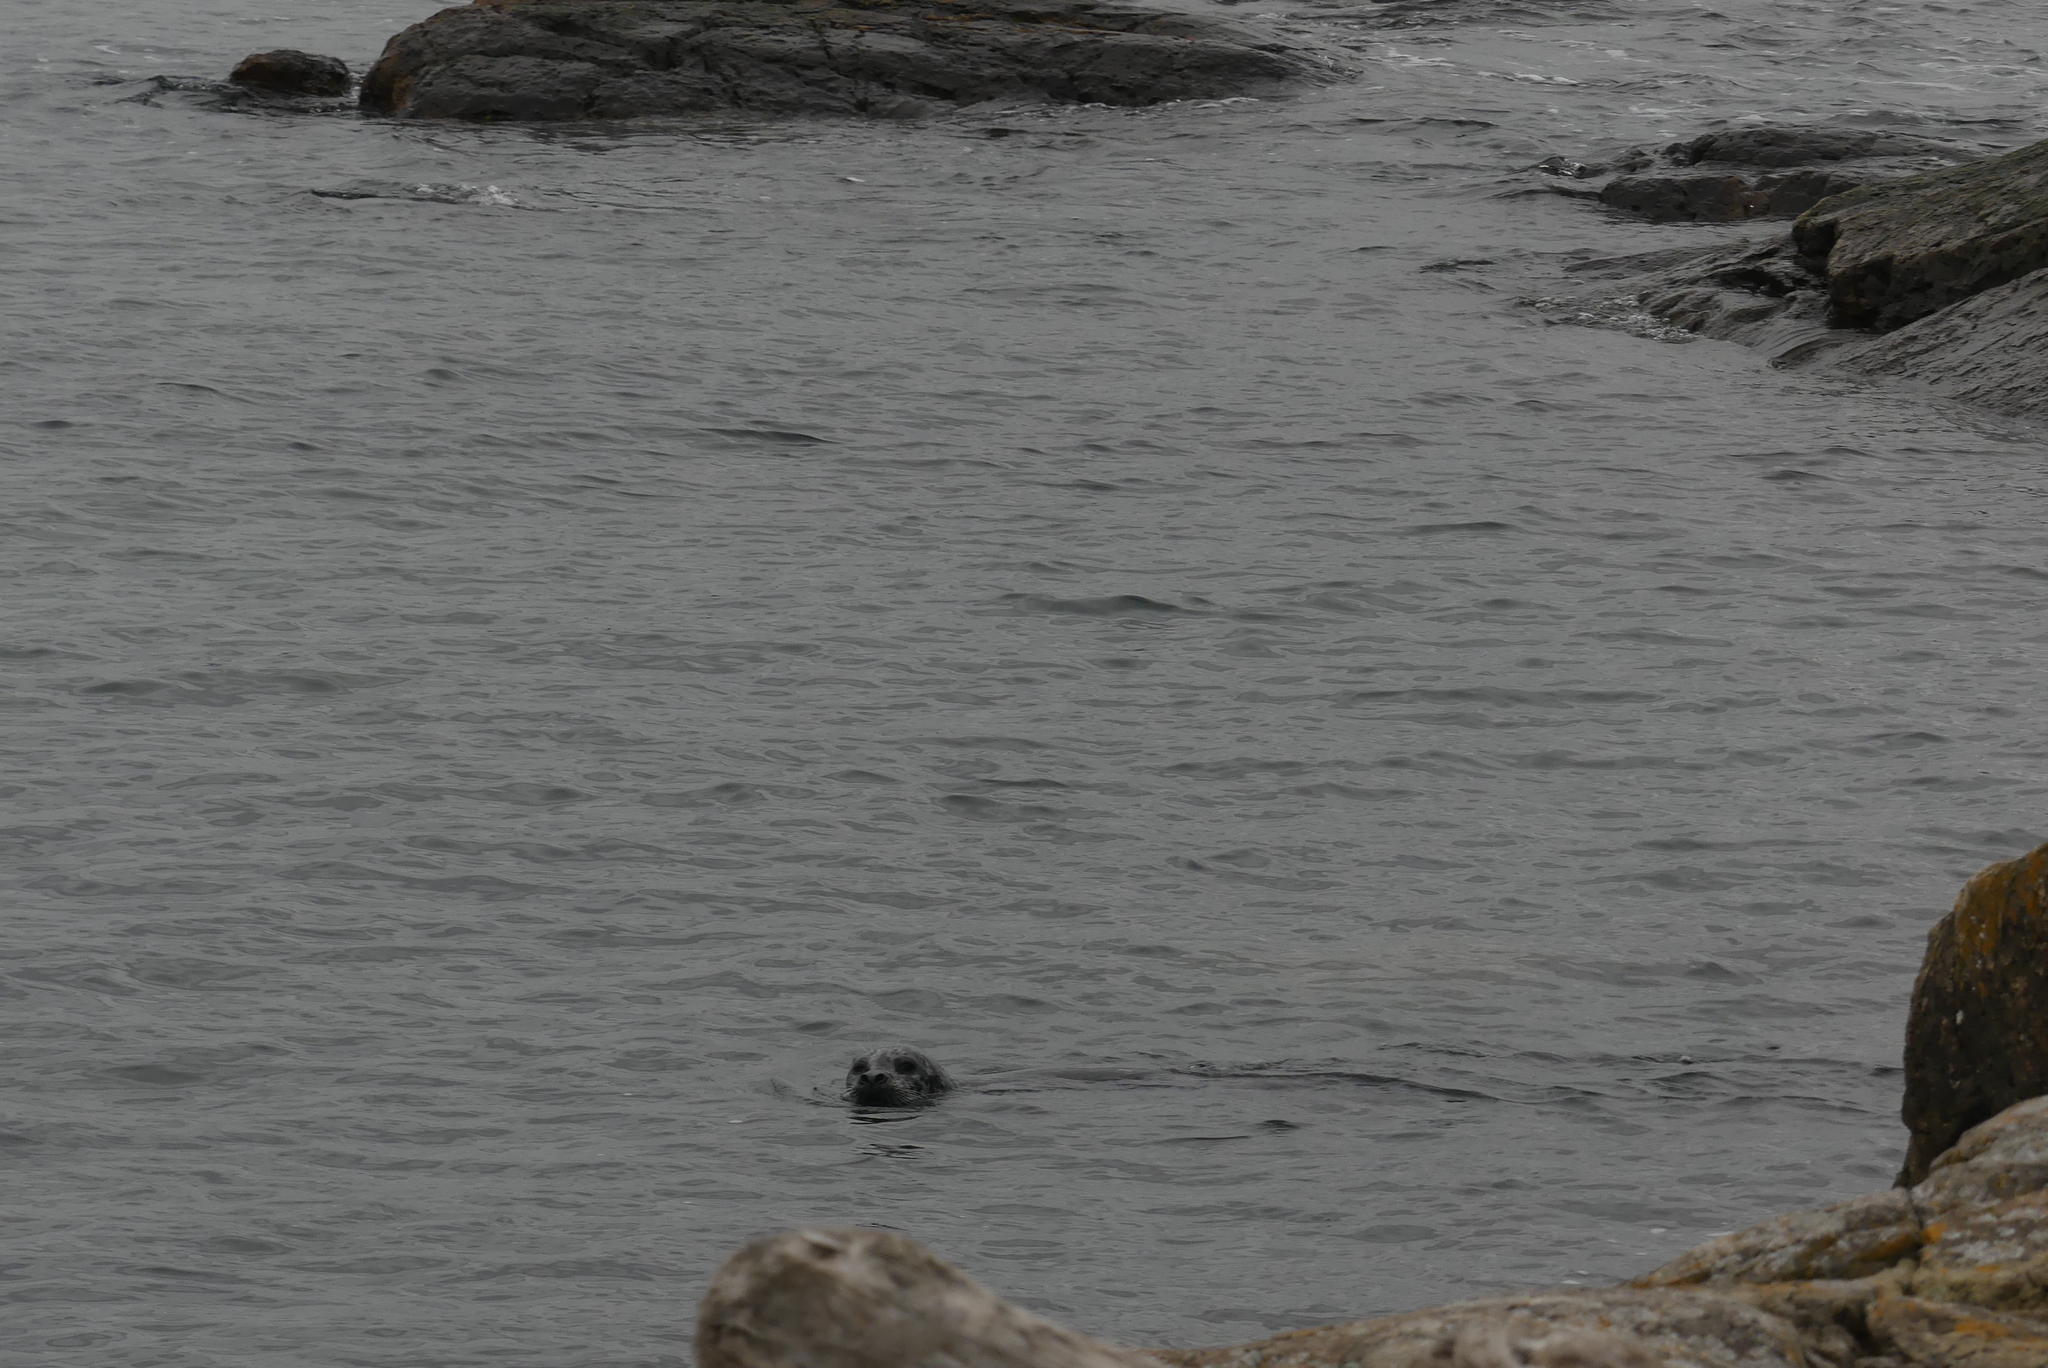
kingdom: Animalia
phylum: Chordata
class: Mammalia
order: Carnivora
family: Phocidae
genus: Phoca
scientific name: Phoca vitulina
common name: Harbor seal
